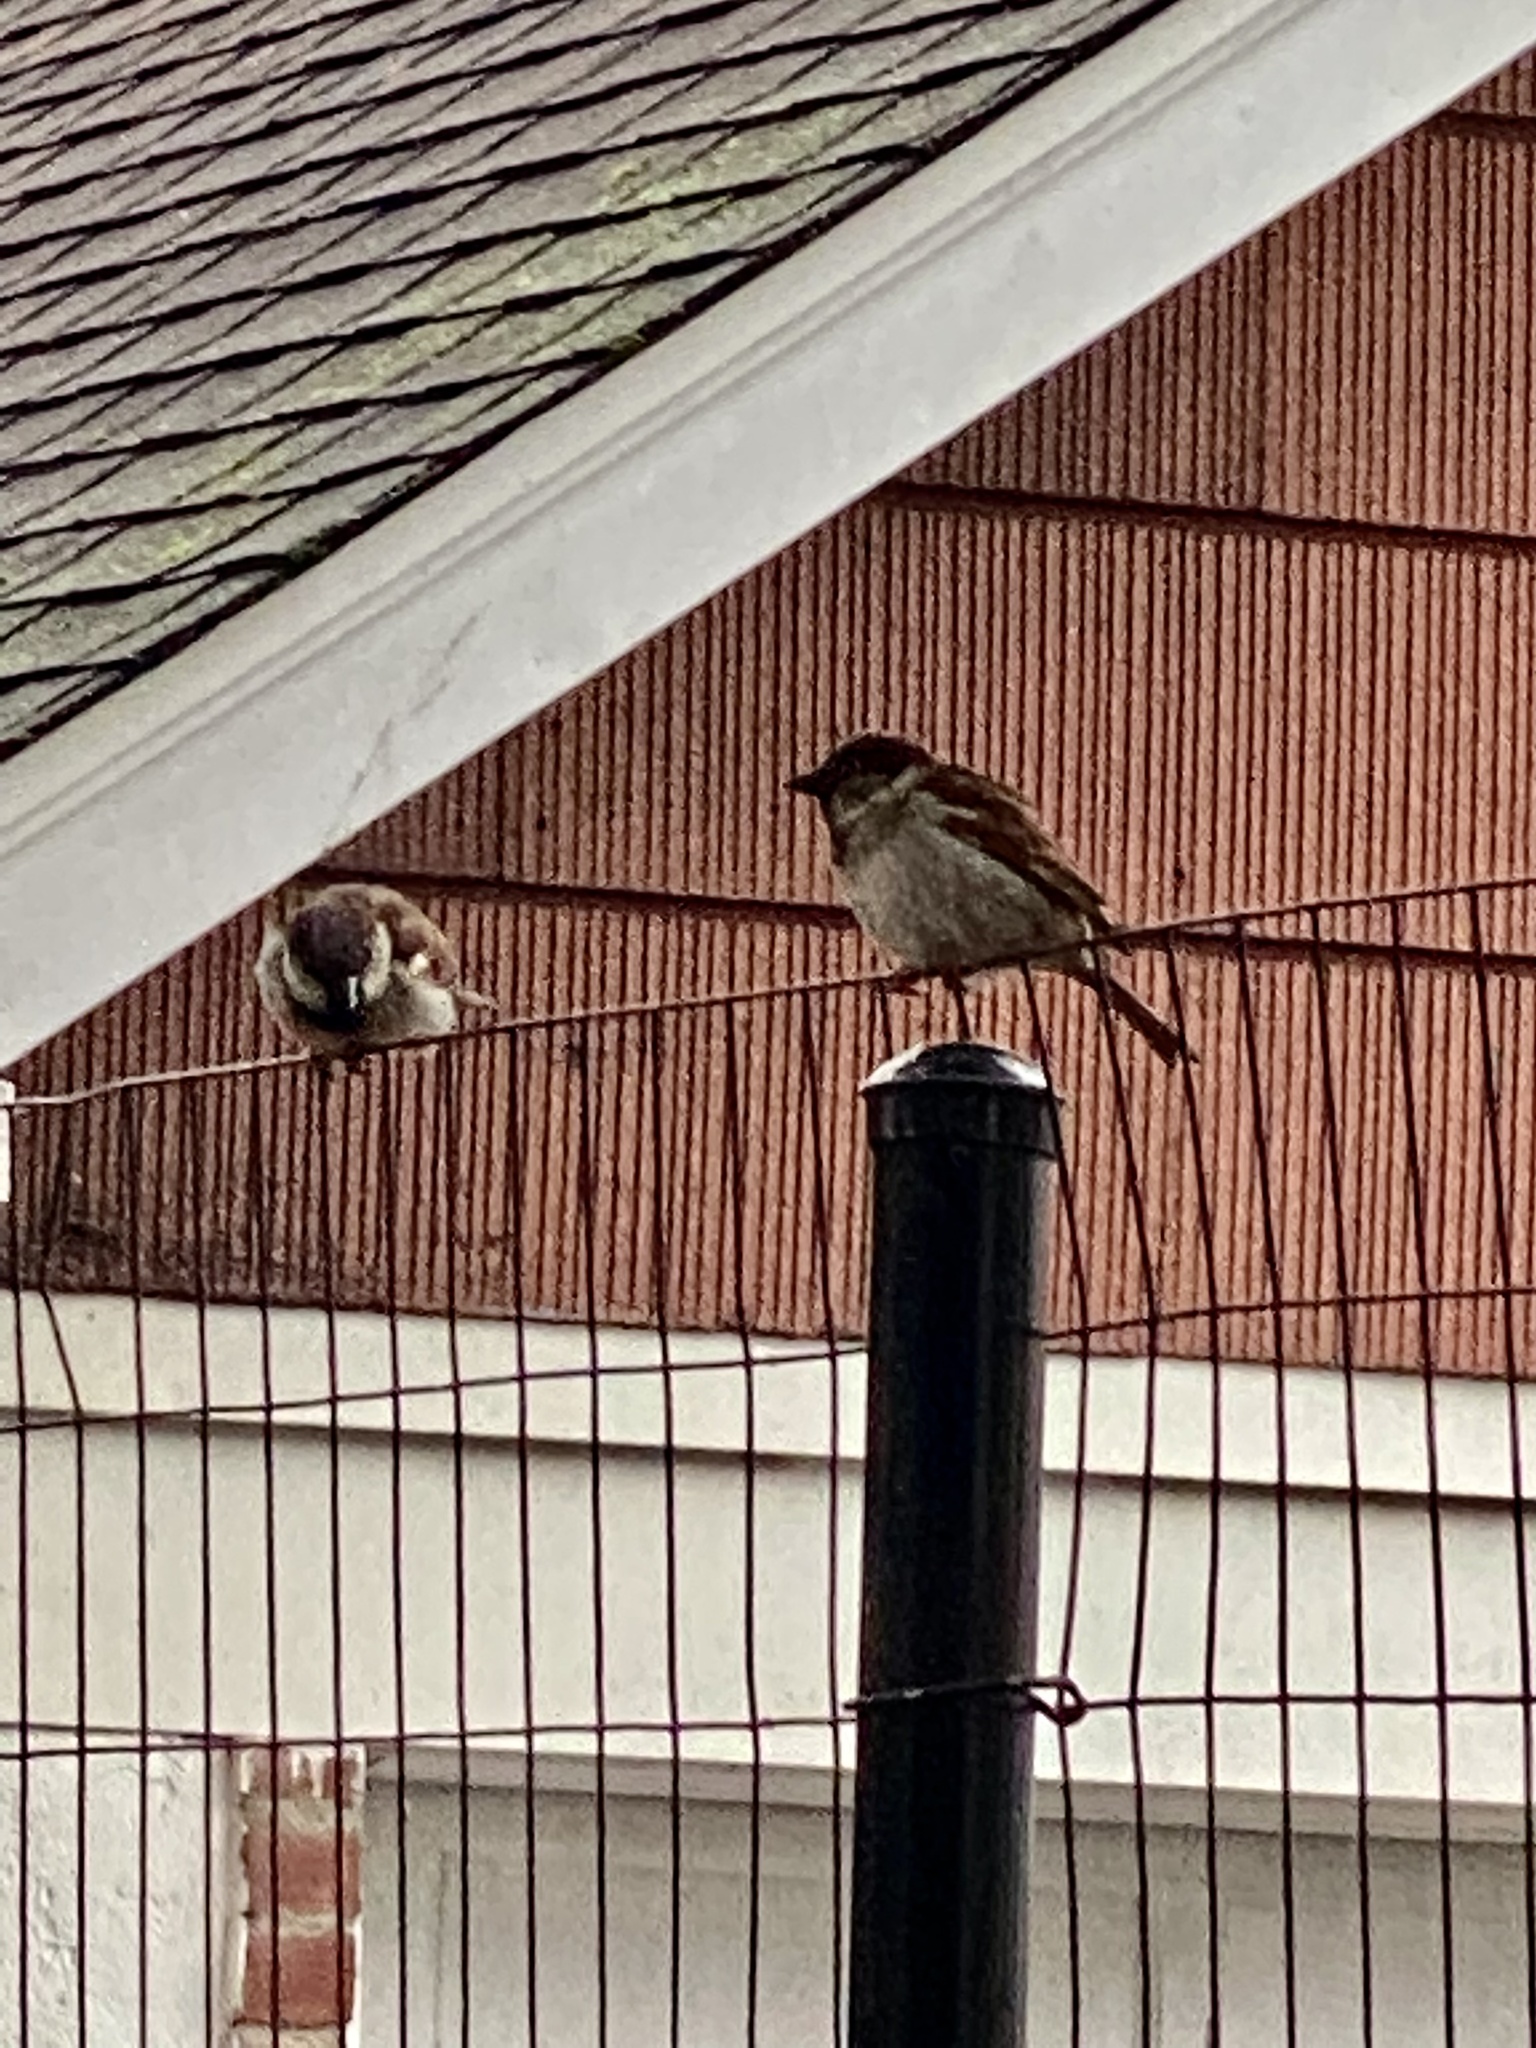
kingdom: Animalia
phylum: Chordata
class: Aves
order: Passeriformes
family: Passeridae
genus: Passer
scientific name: Passer domesticus
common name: House sparrow
